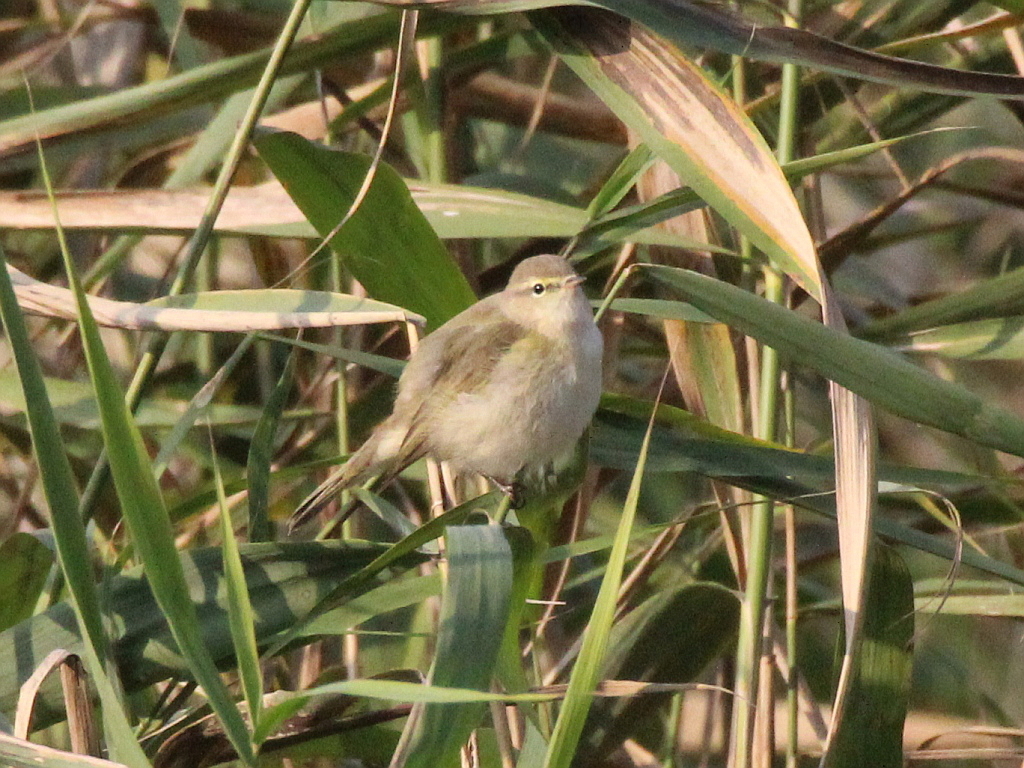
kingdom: Animalia
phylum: Chordata
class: Aves
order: Passeriformes
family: Phylloscopidae
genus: Phylloscopus
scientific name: Phylloscopus collybita
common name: Common chiffchaff
